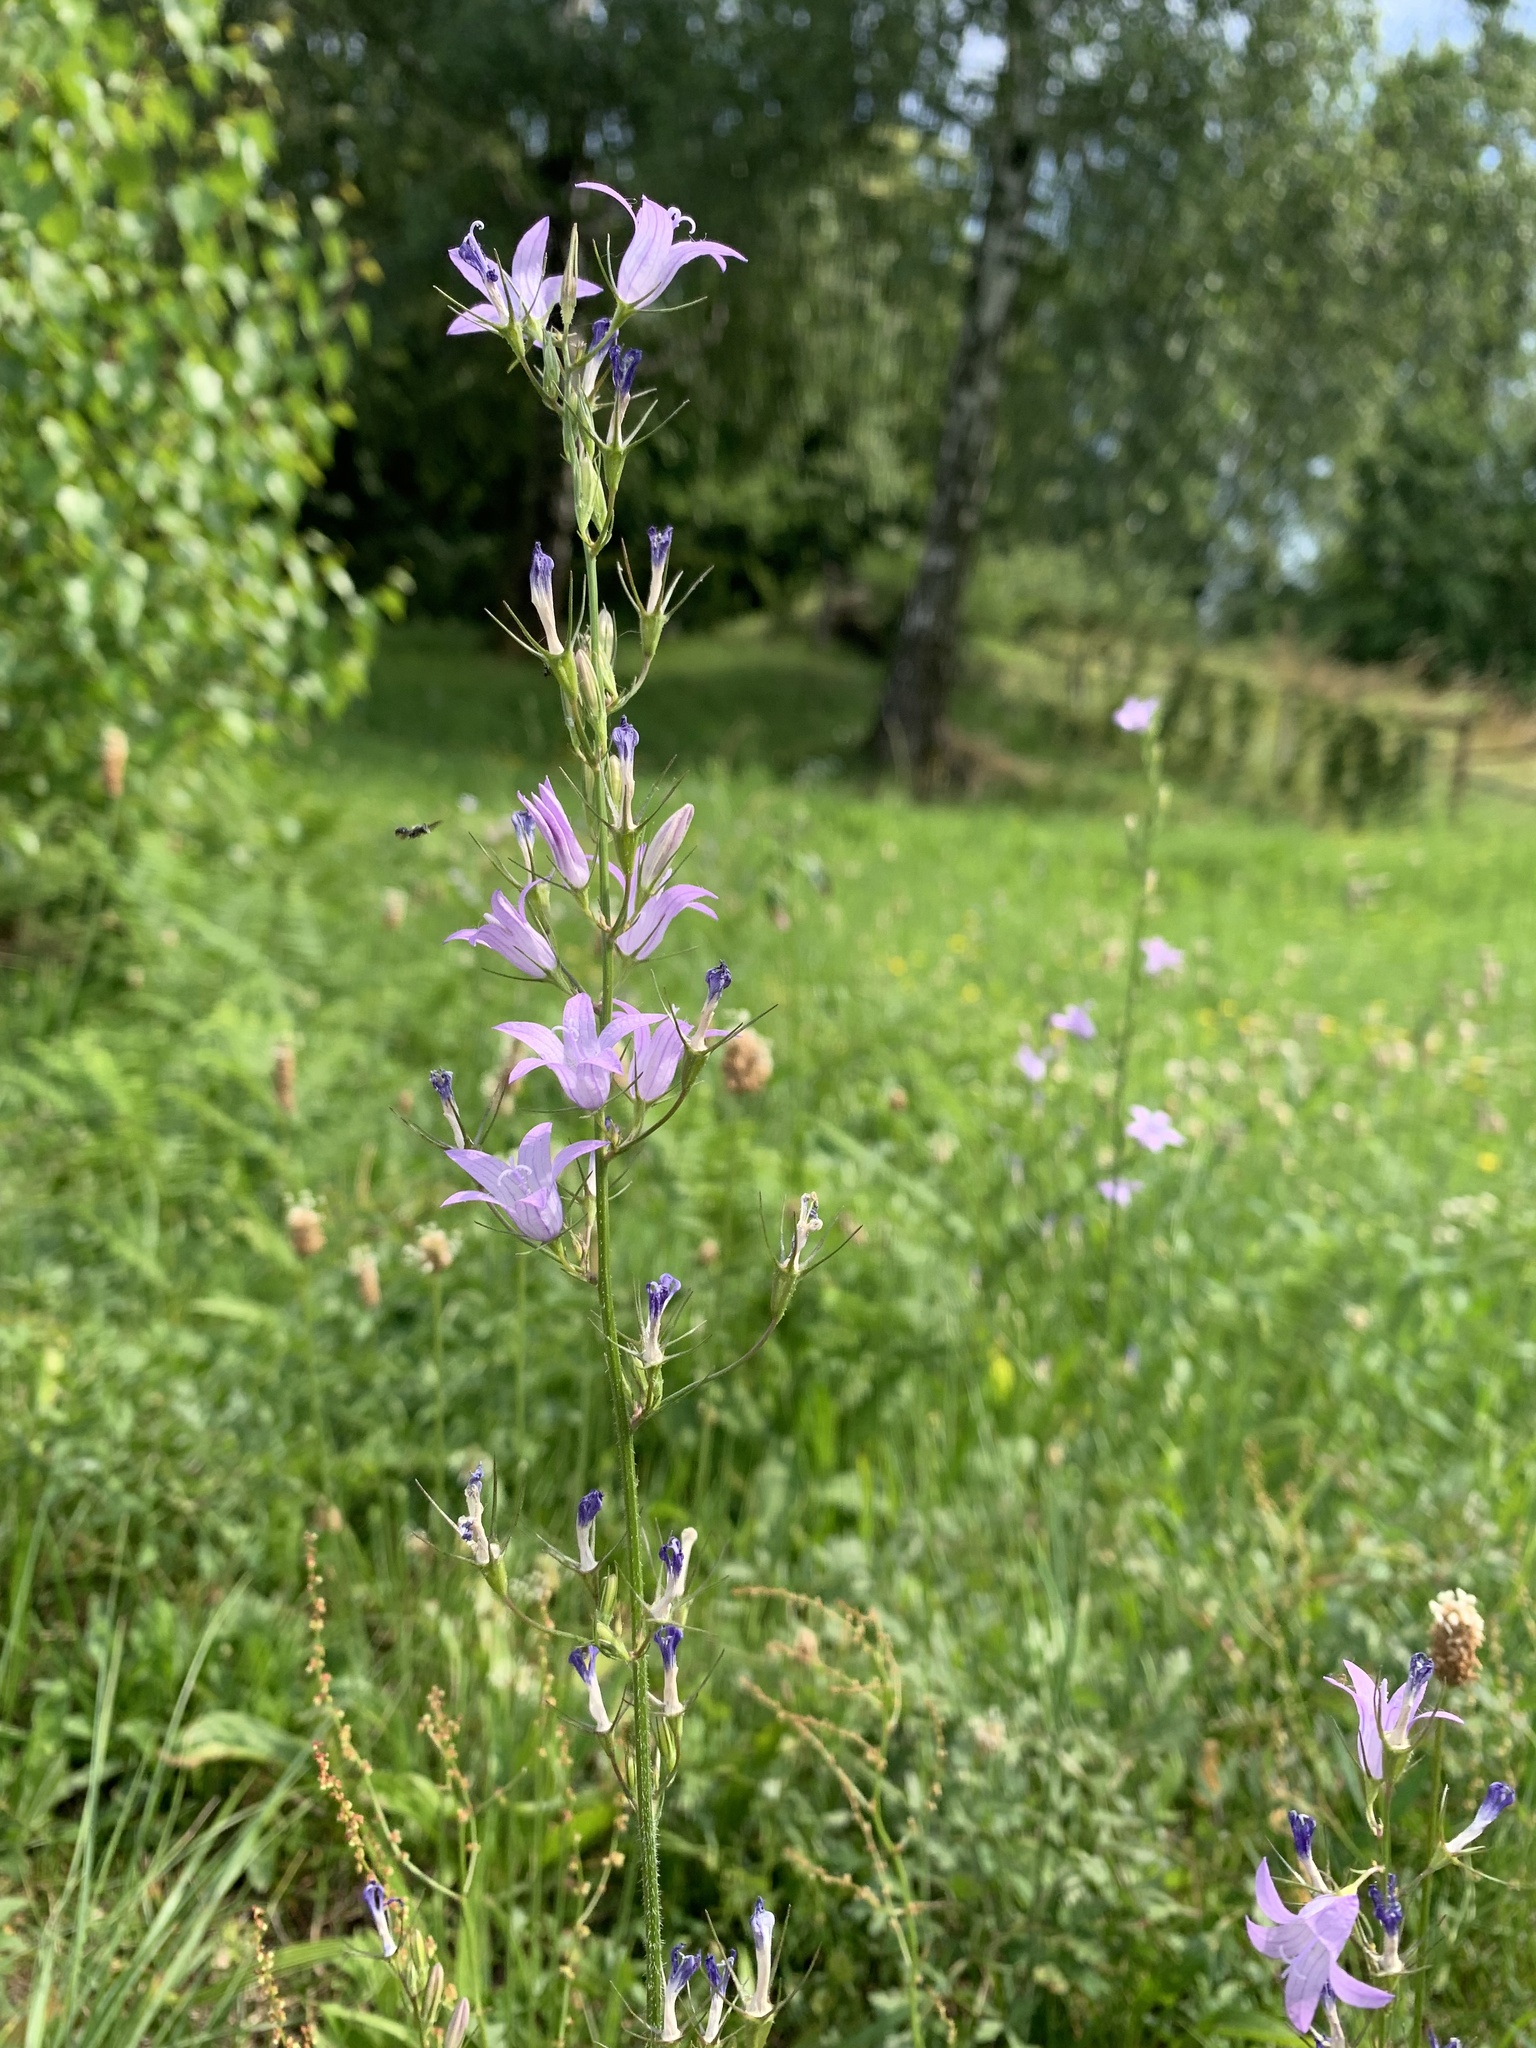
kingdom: Plantae
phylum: Tracheophyta
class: Magnoliopsida
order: Asterales
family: Campanulaceae
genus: Campanula
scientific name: Campanula rapunculus
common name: Rampion bellflower
